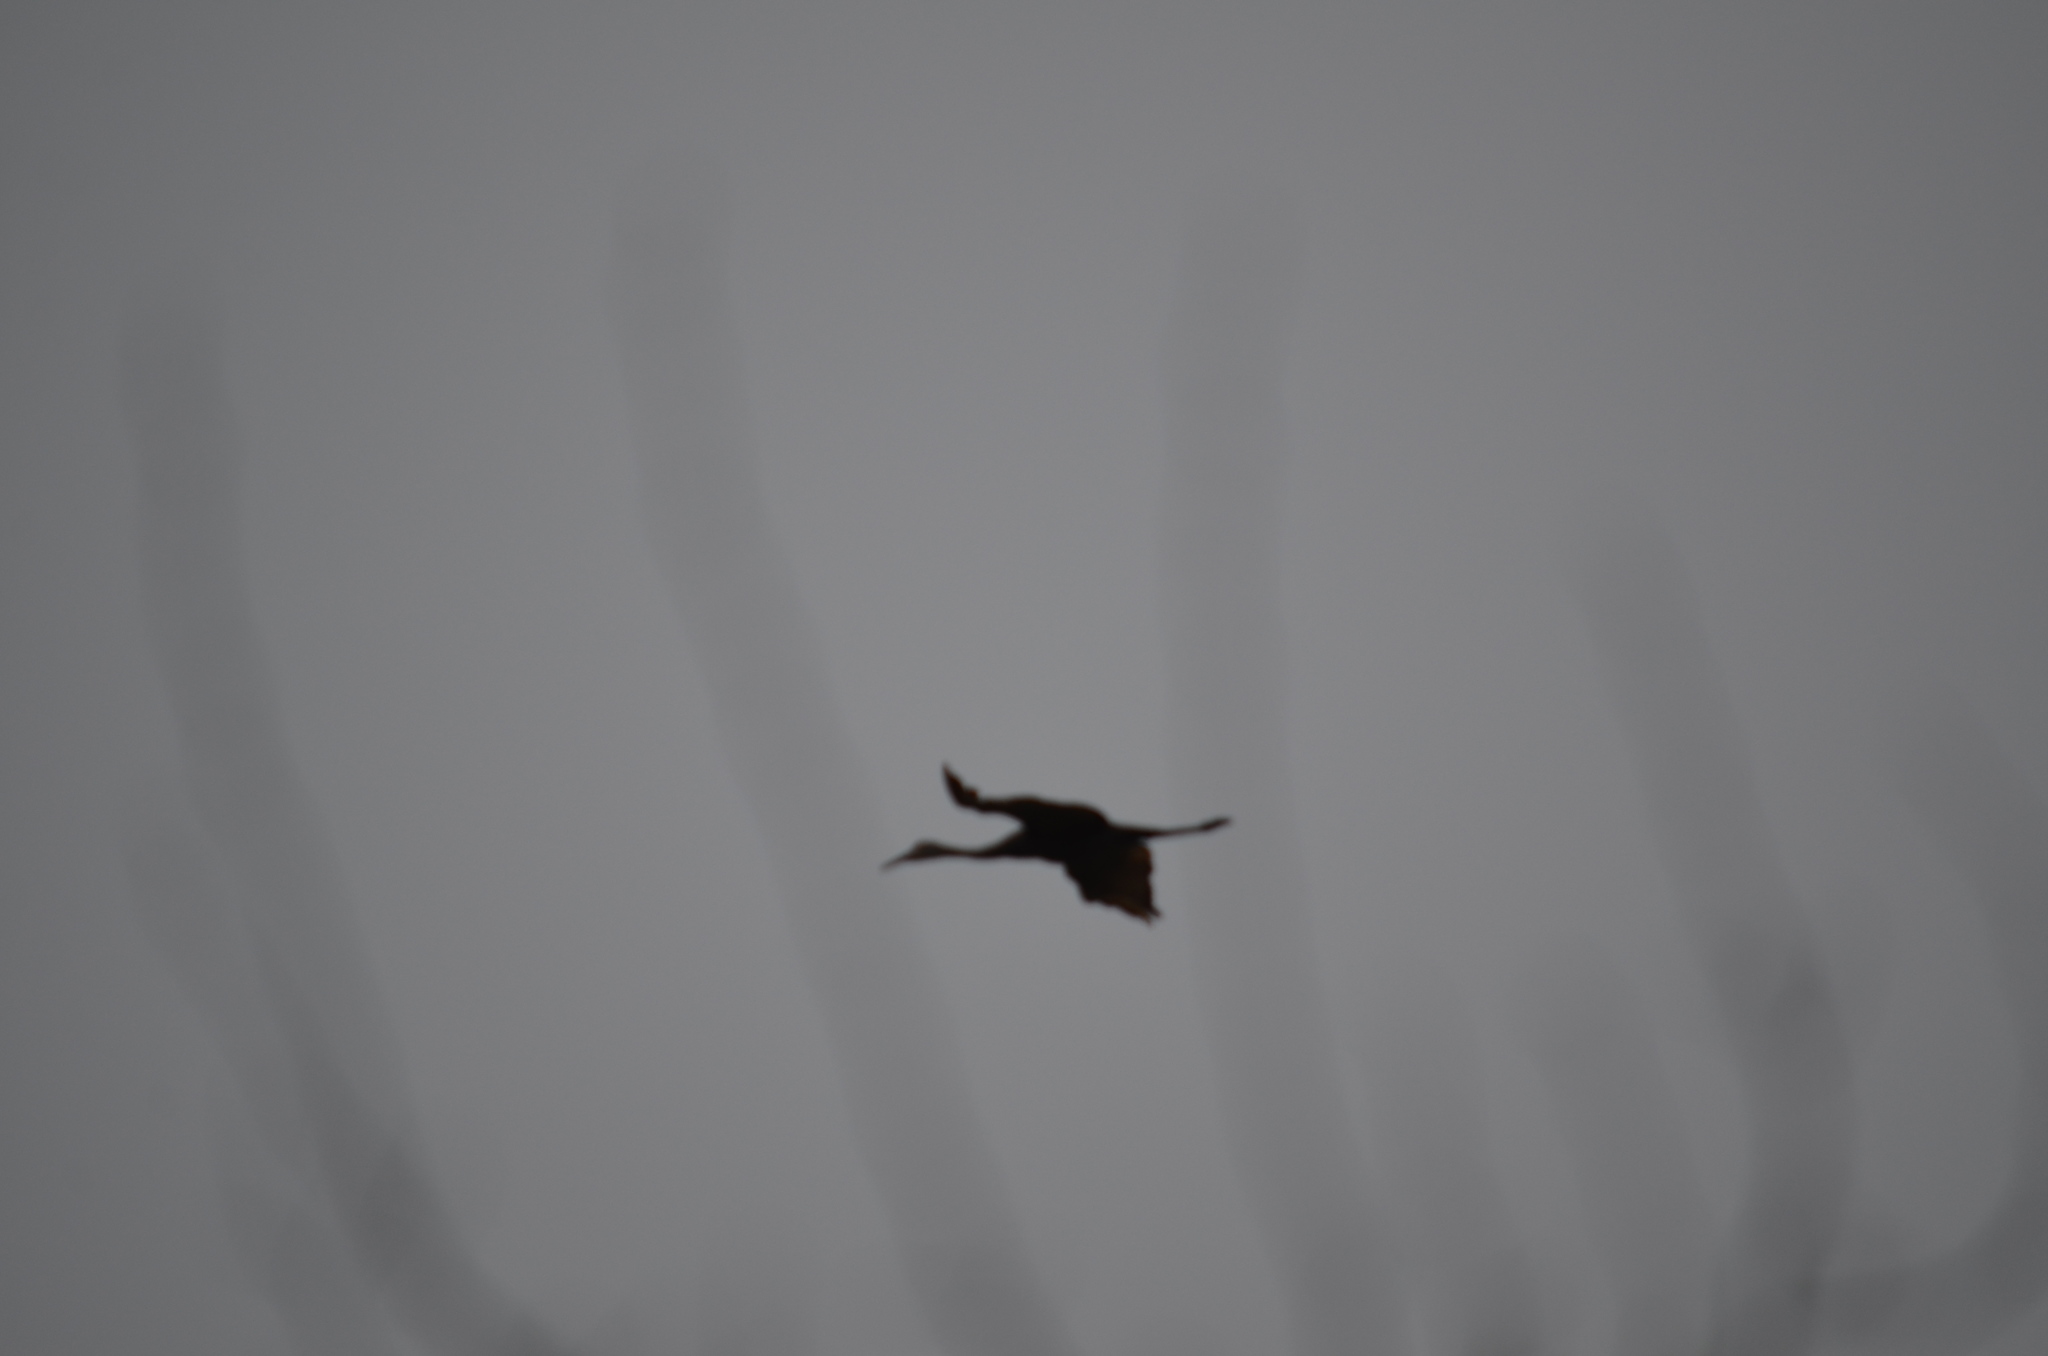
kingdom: Animalia
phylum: Chordata
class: Aves
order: Gruiformes
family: Gruidae
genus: Grus
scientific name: Grus canadensis
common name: Sandhill crane
